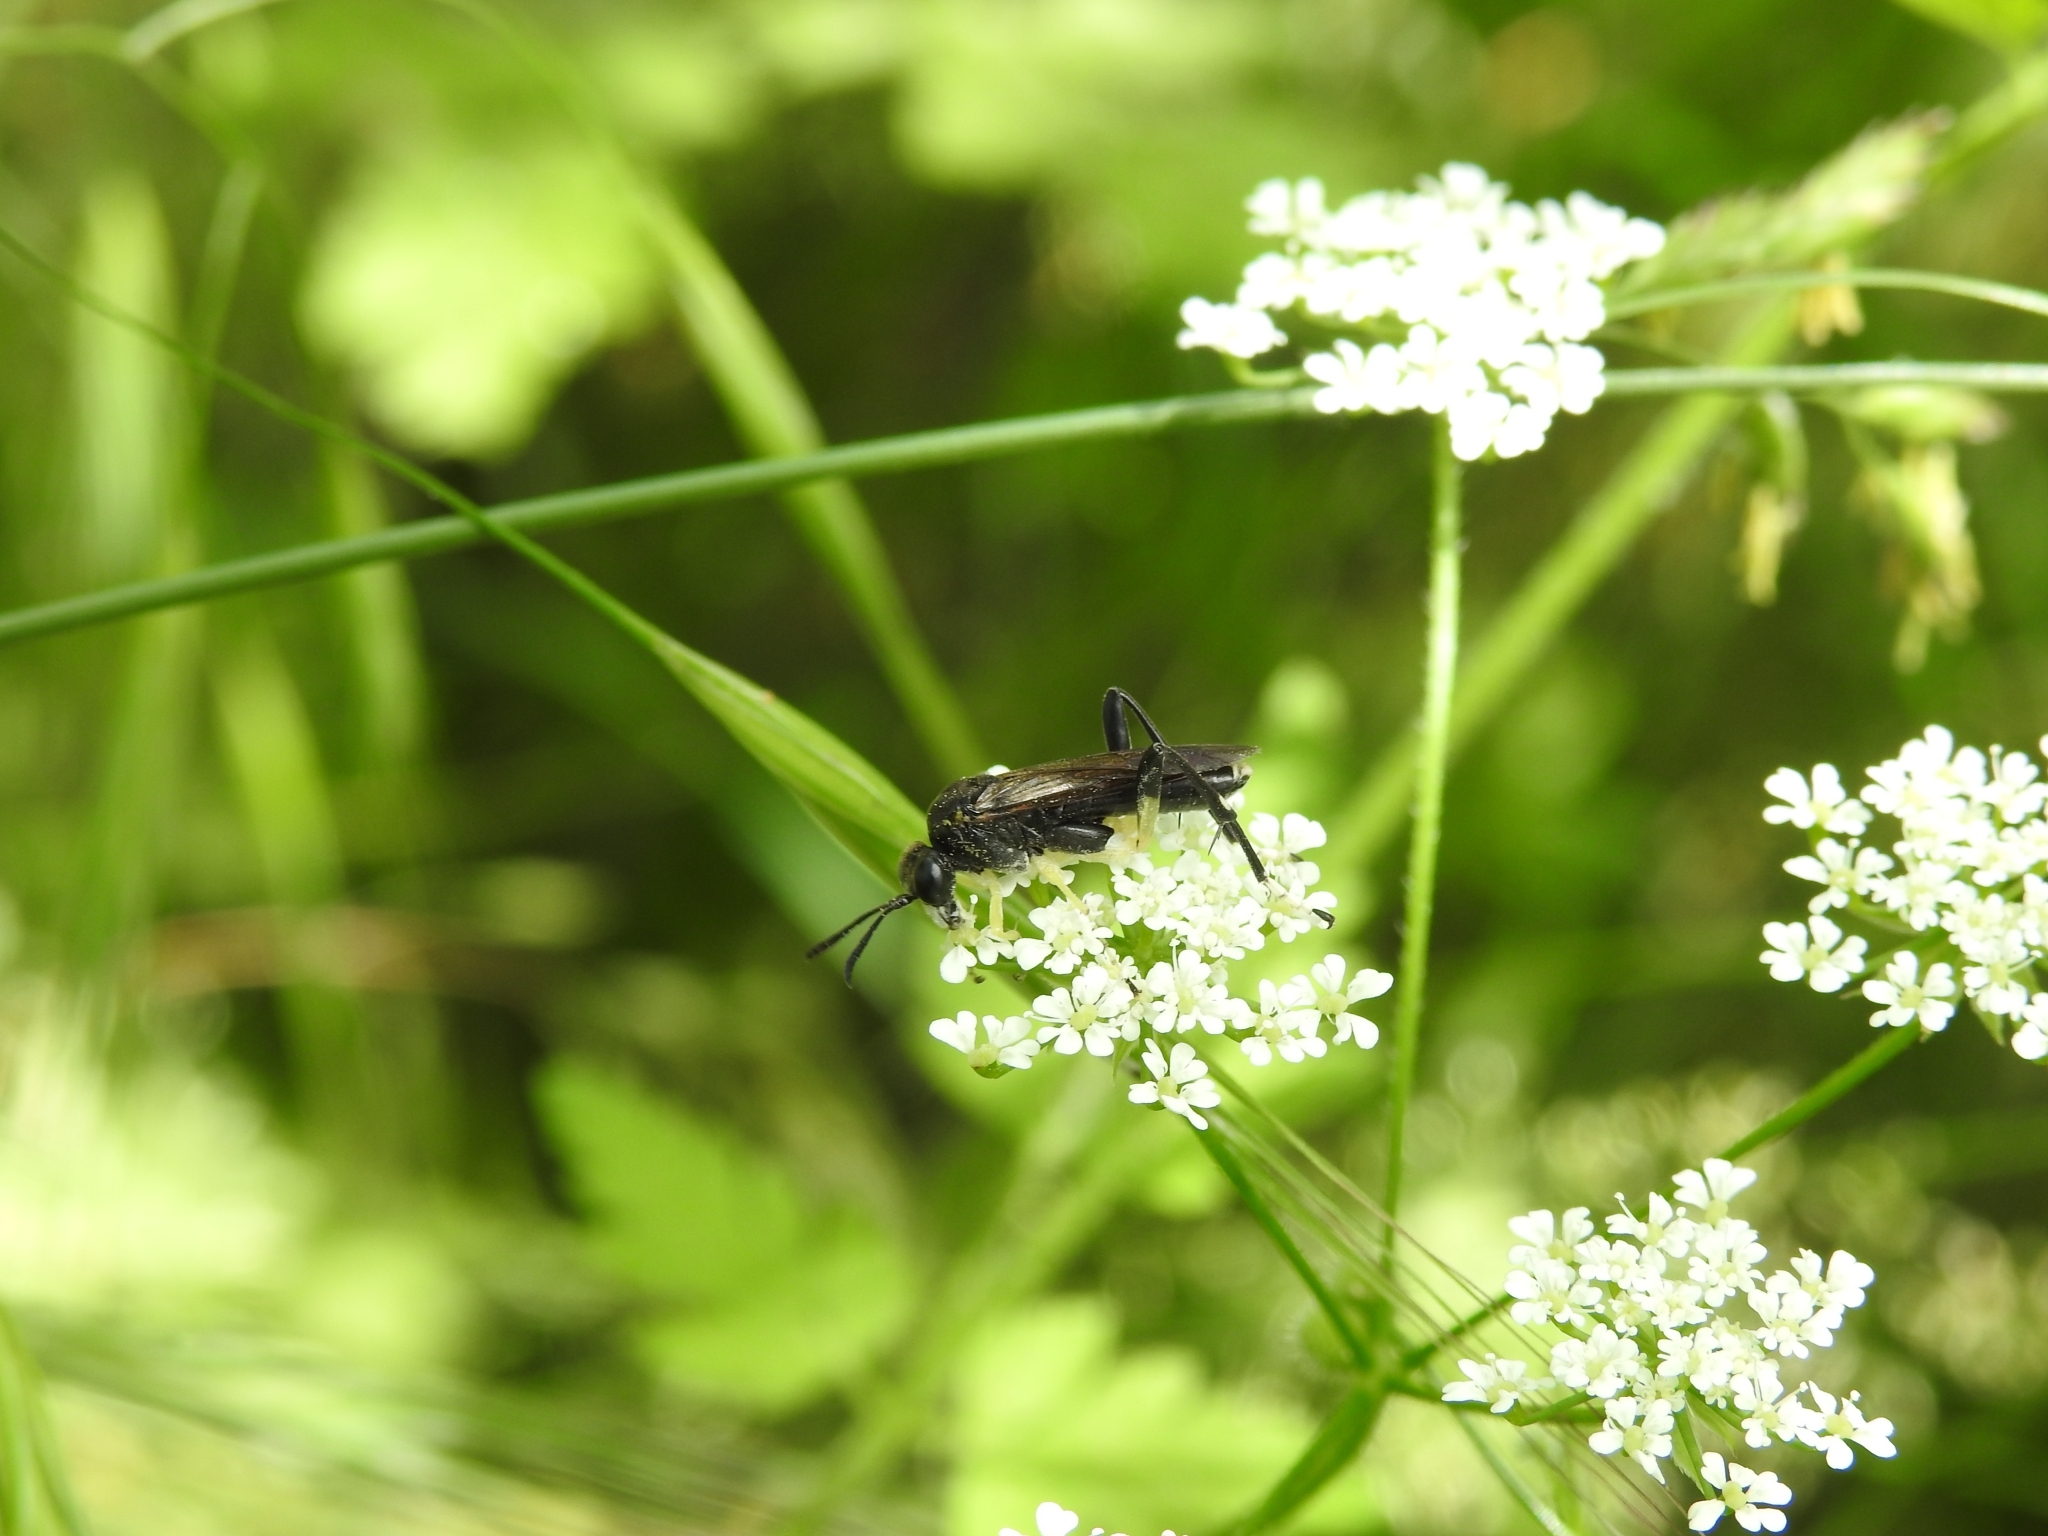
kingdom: Animalia
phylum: Arthropoda
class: Insecta
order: Hymenoptera
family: Tenthredinidae
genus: Macrophya
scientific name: Macrophya montana
